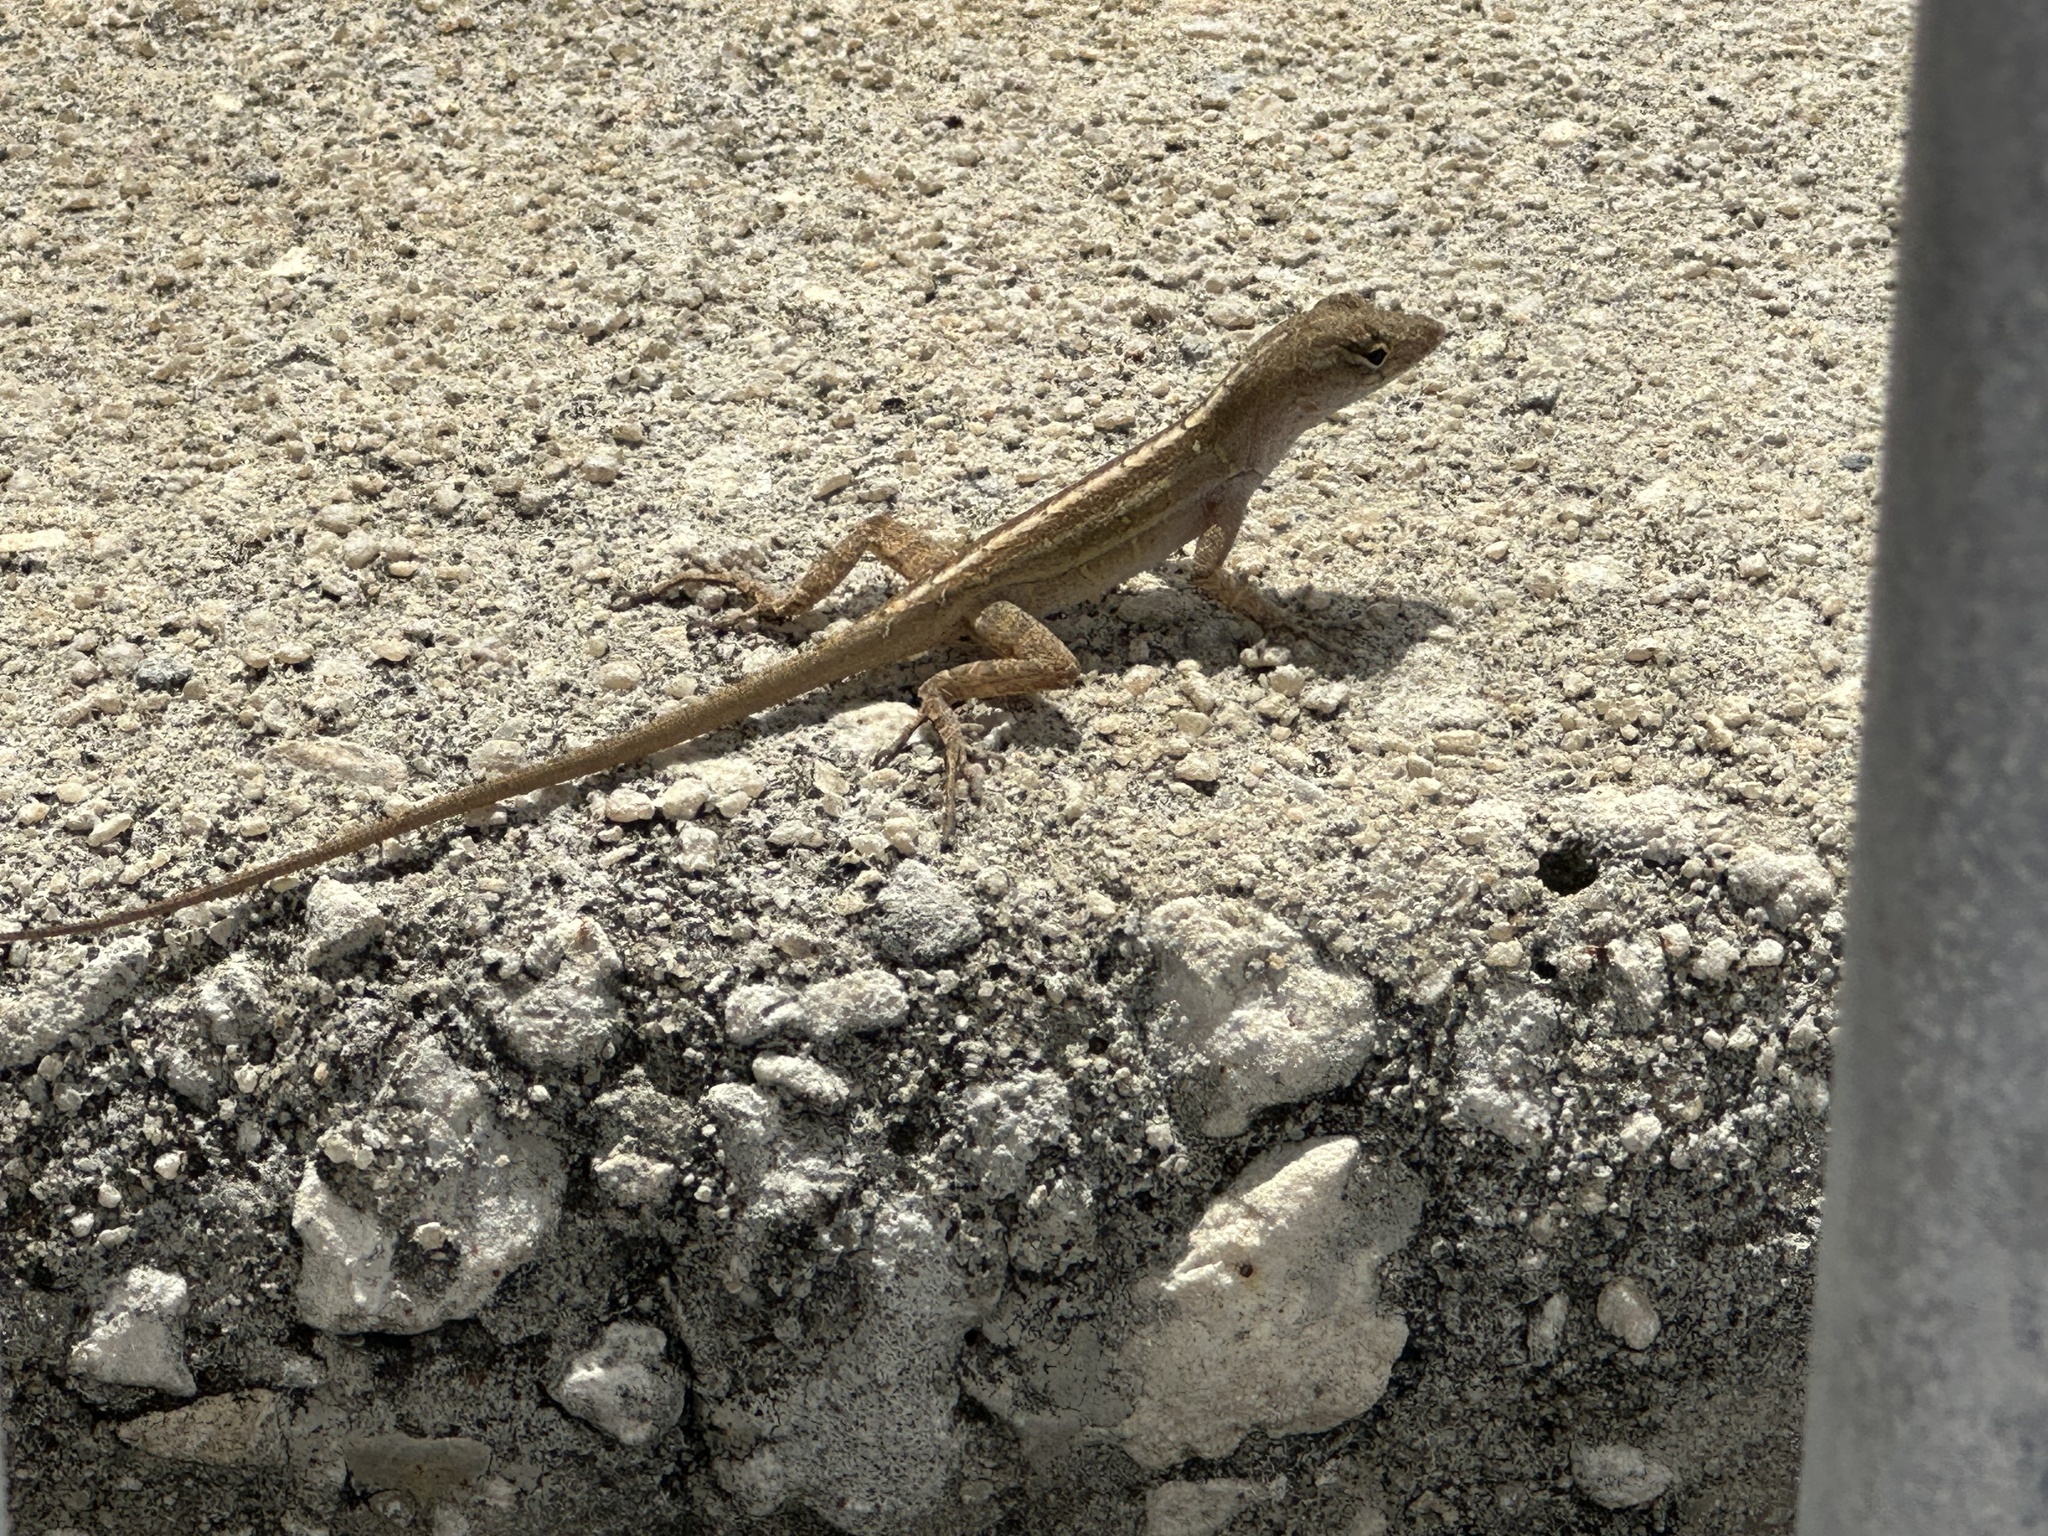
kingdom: Animalia
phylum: Chordata
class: Squamata
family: Dactyloidae
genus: Anolis
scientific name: Anolis sagrei
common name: Brown anole
